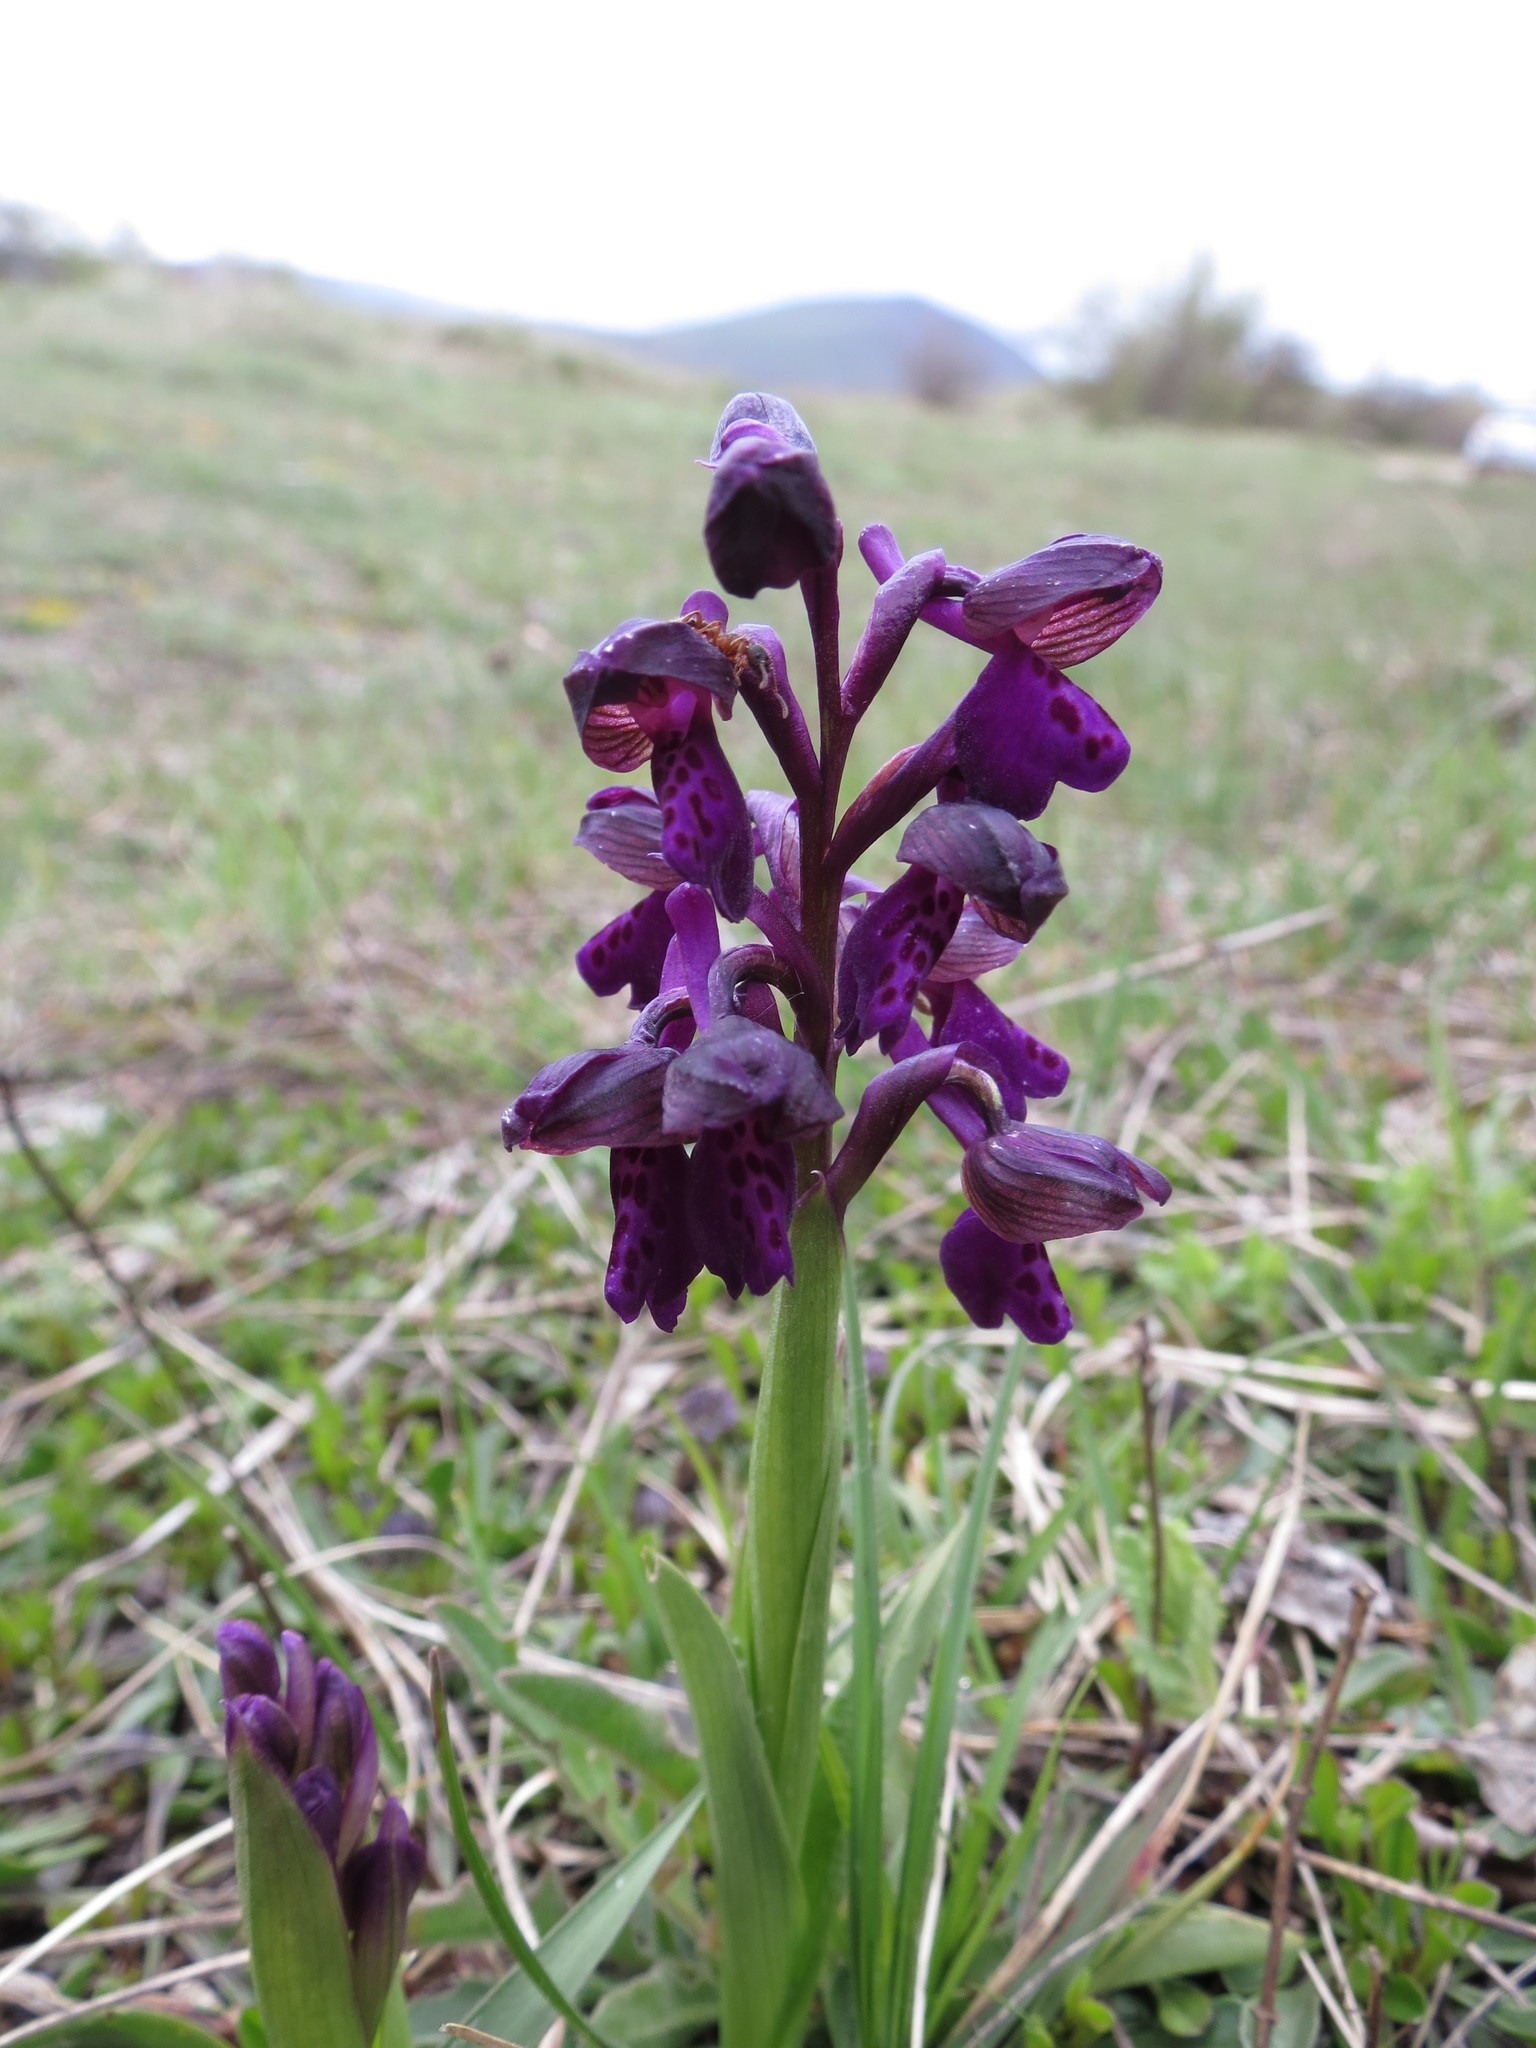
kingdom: Plantae
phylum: Tracheophyta
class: Liliopsida
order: Asparagales
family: Orchidaceae
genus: Anacamptis
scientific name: Anacamptis morio
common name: Green-winged orchid
